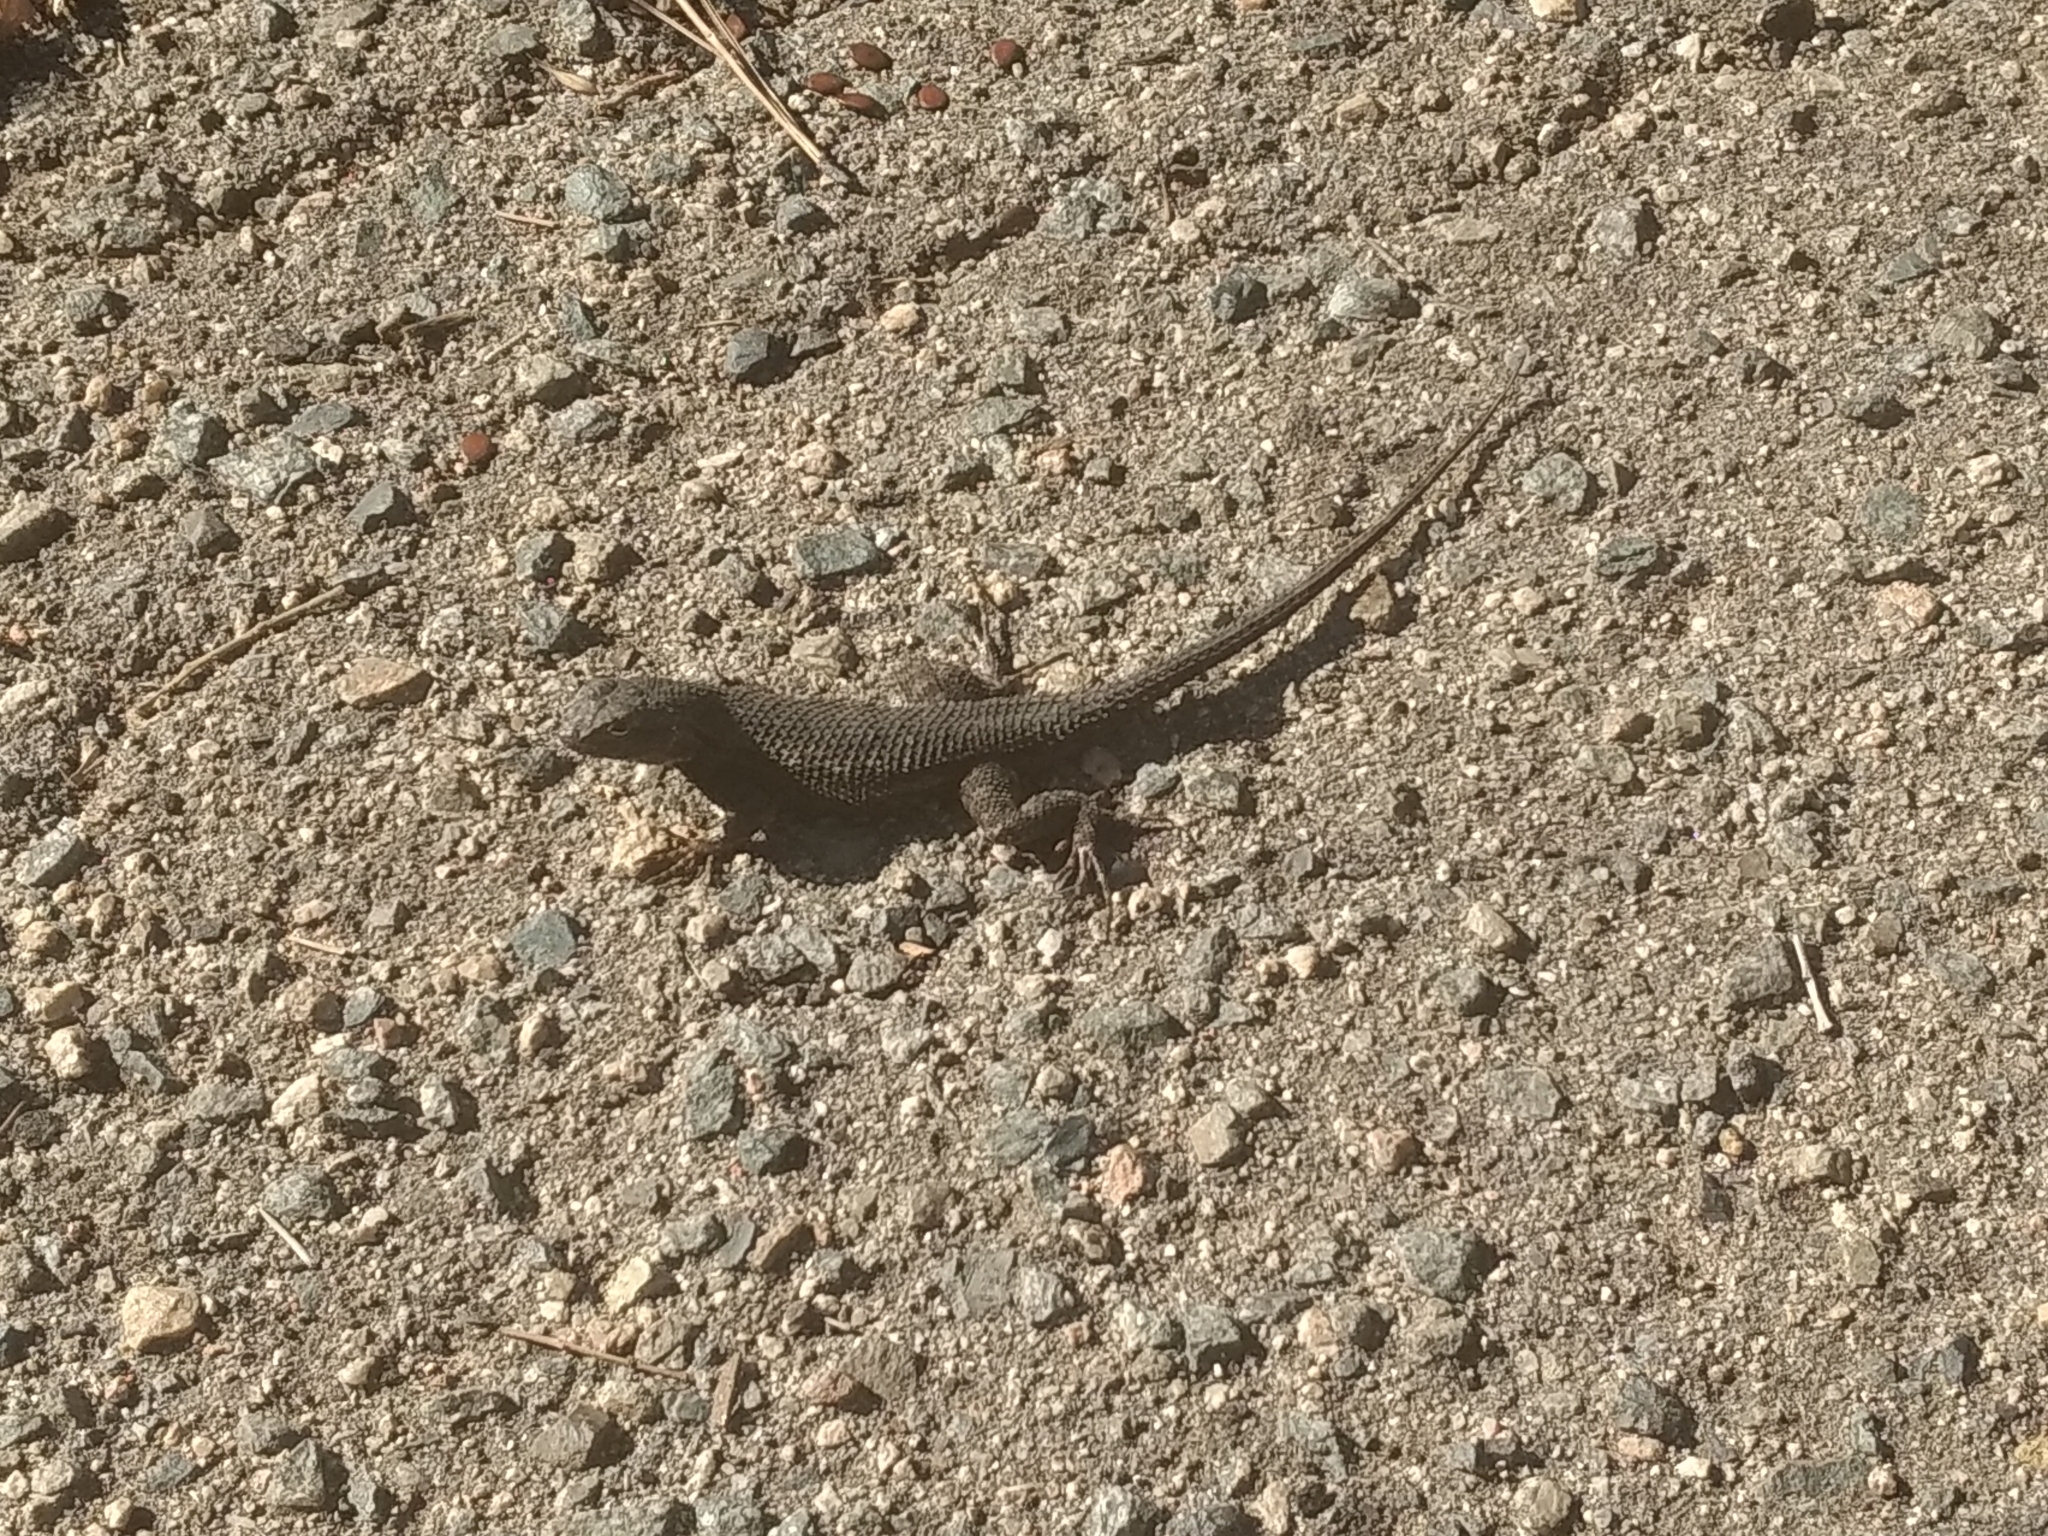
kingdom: Animalia
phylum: Chordata
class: Squamata
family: Phrynosomatidae
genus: Sceloporus
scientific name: Sceloporus orcutti
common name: Granite spiny lizard
